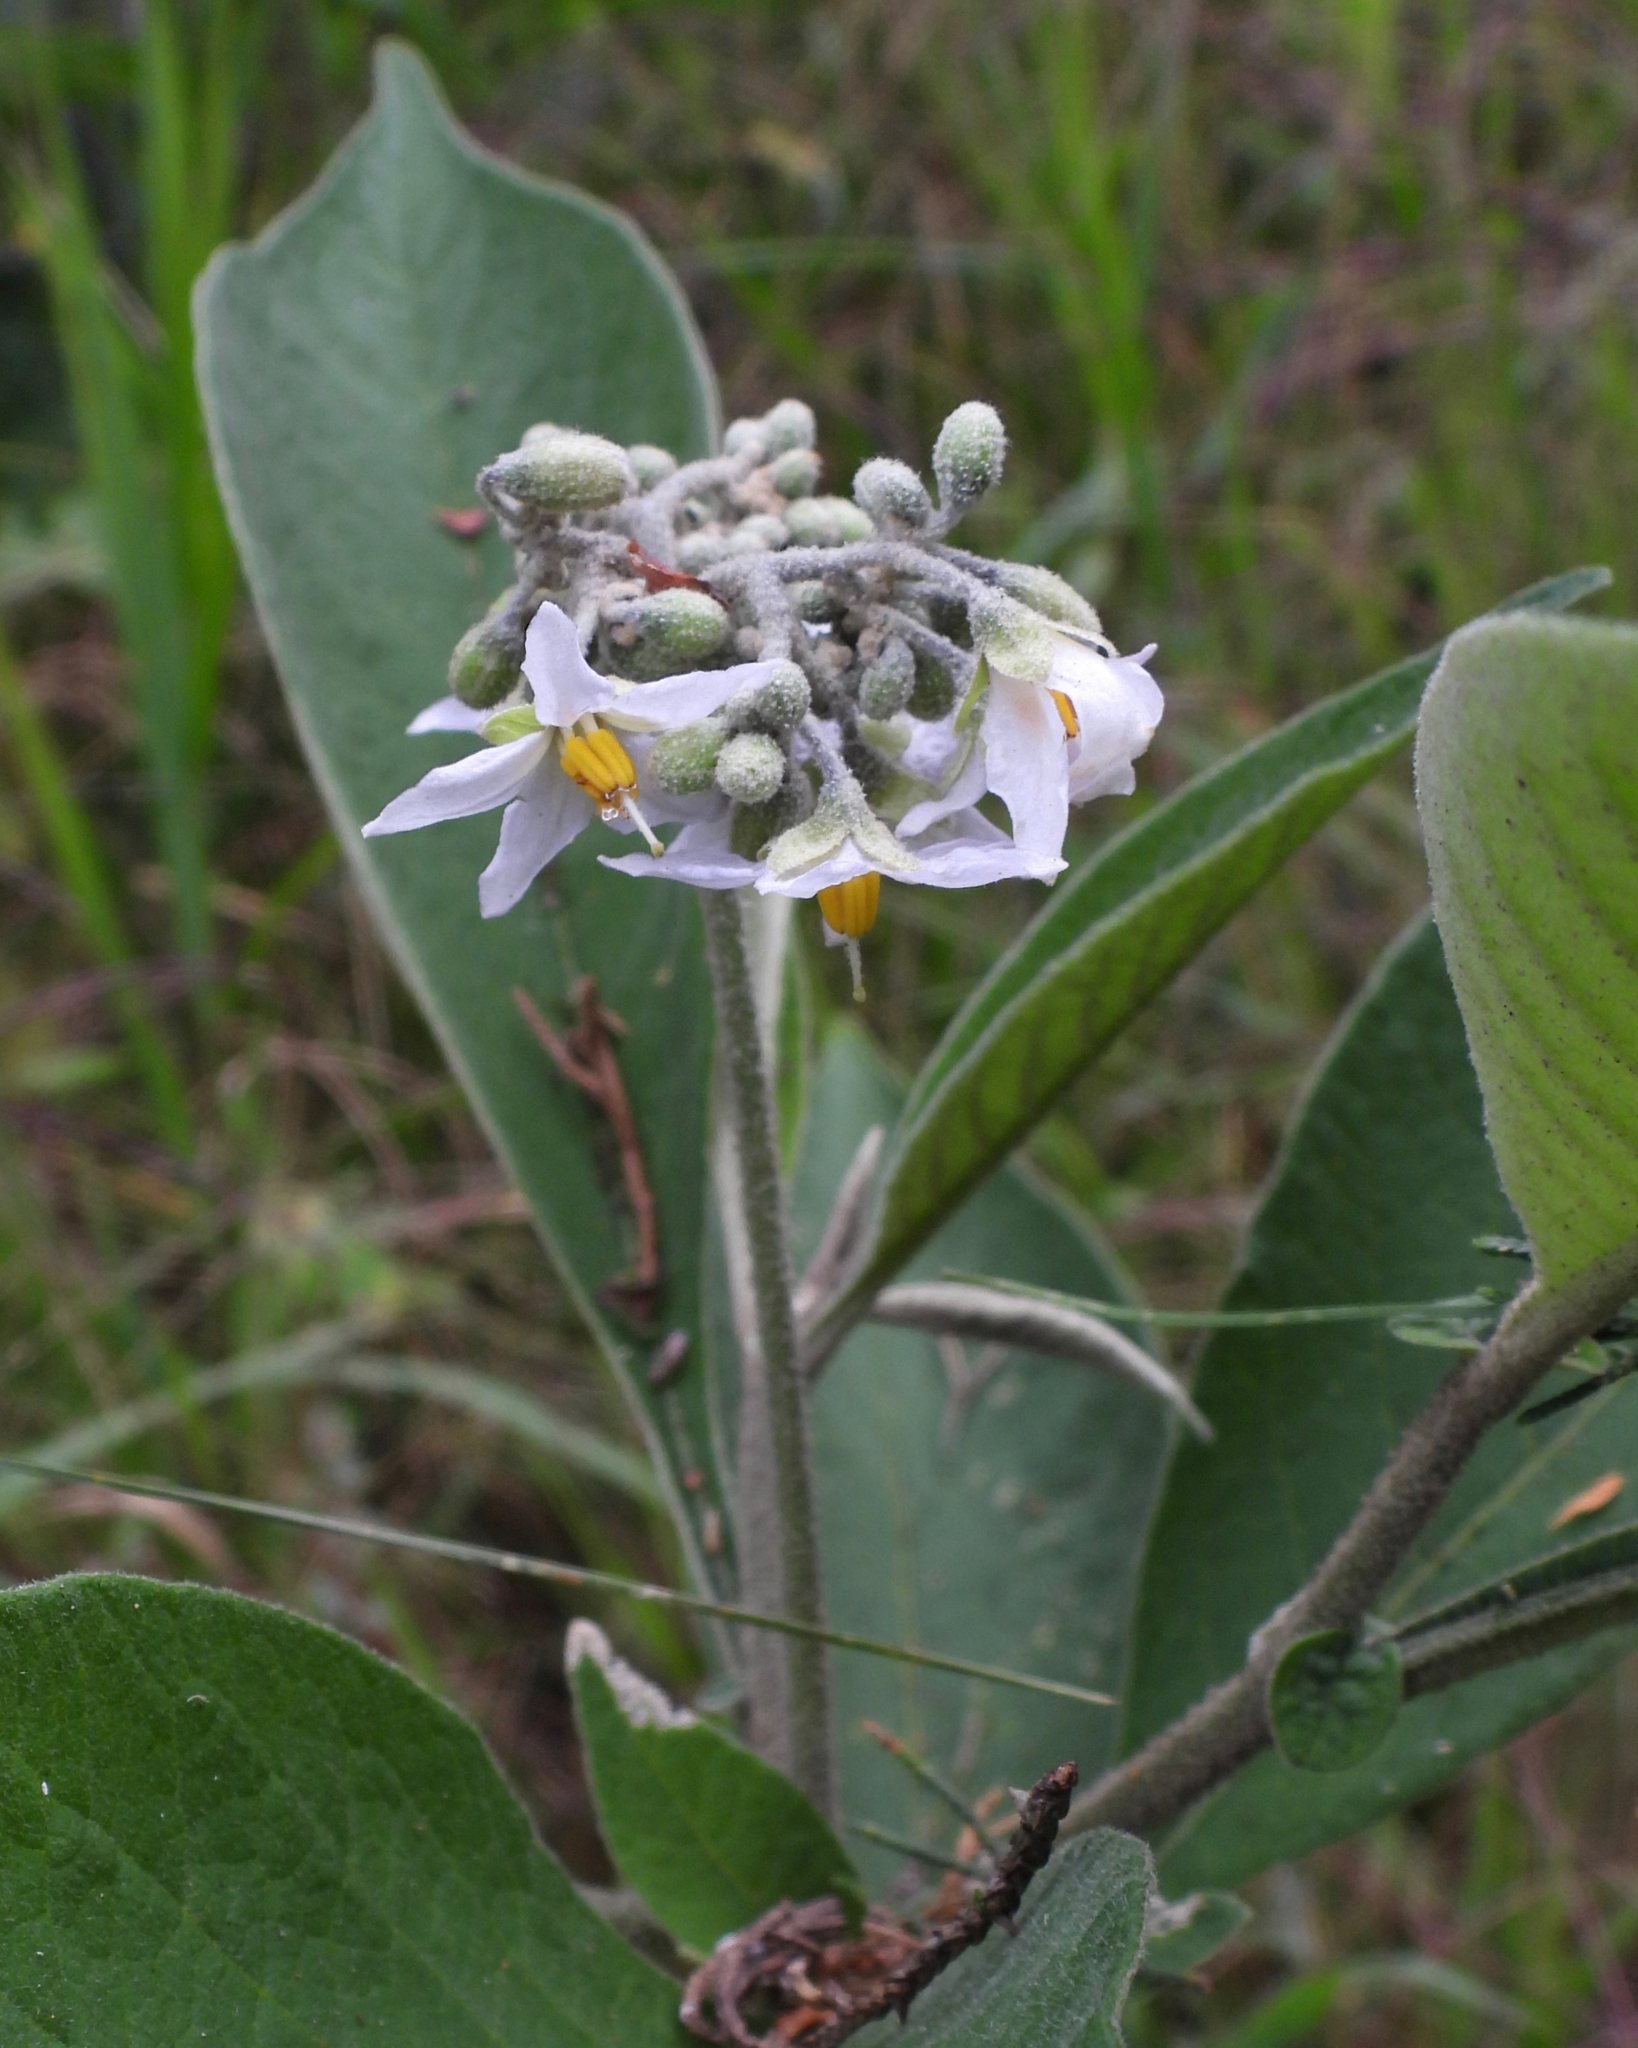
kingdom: Plantae
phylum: Tracheophyta
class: Magnoliopsida
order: Solanales
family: Solanaceae
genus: Solanum
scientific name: Solanum brevipedicellatum
